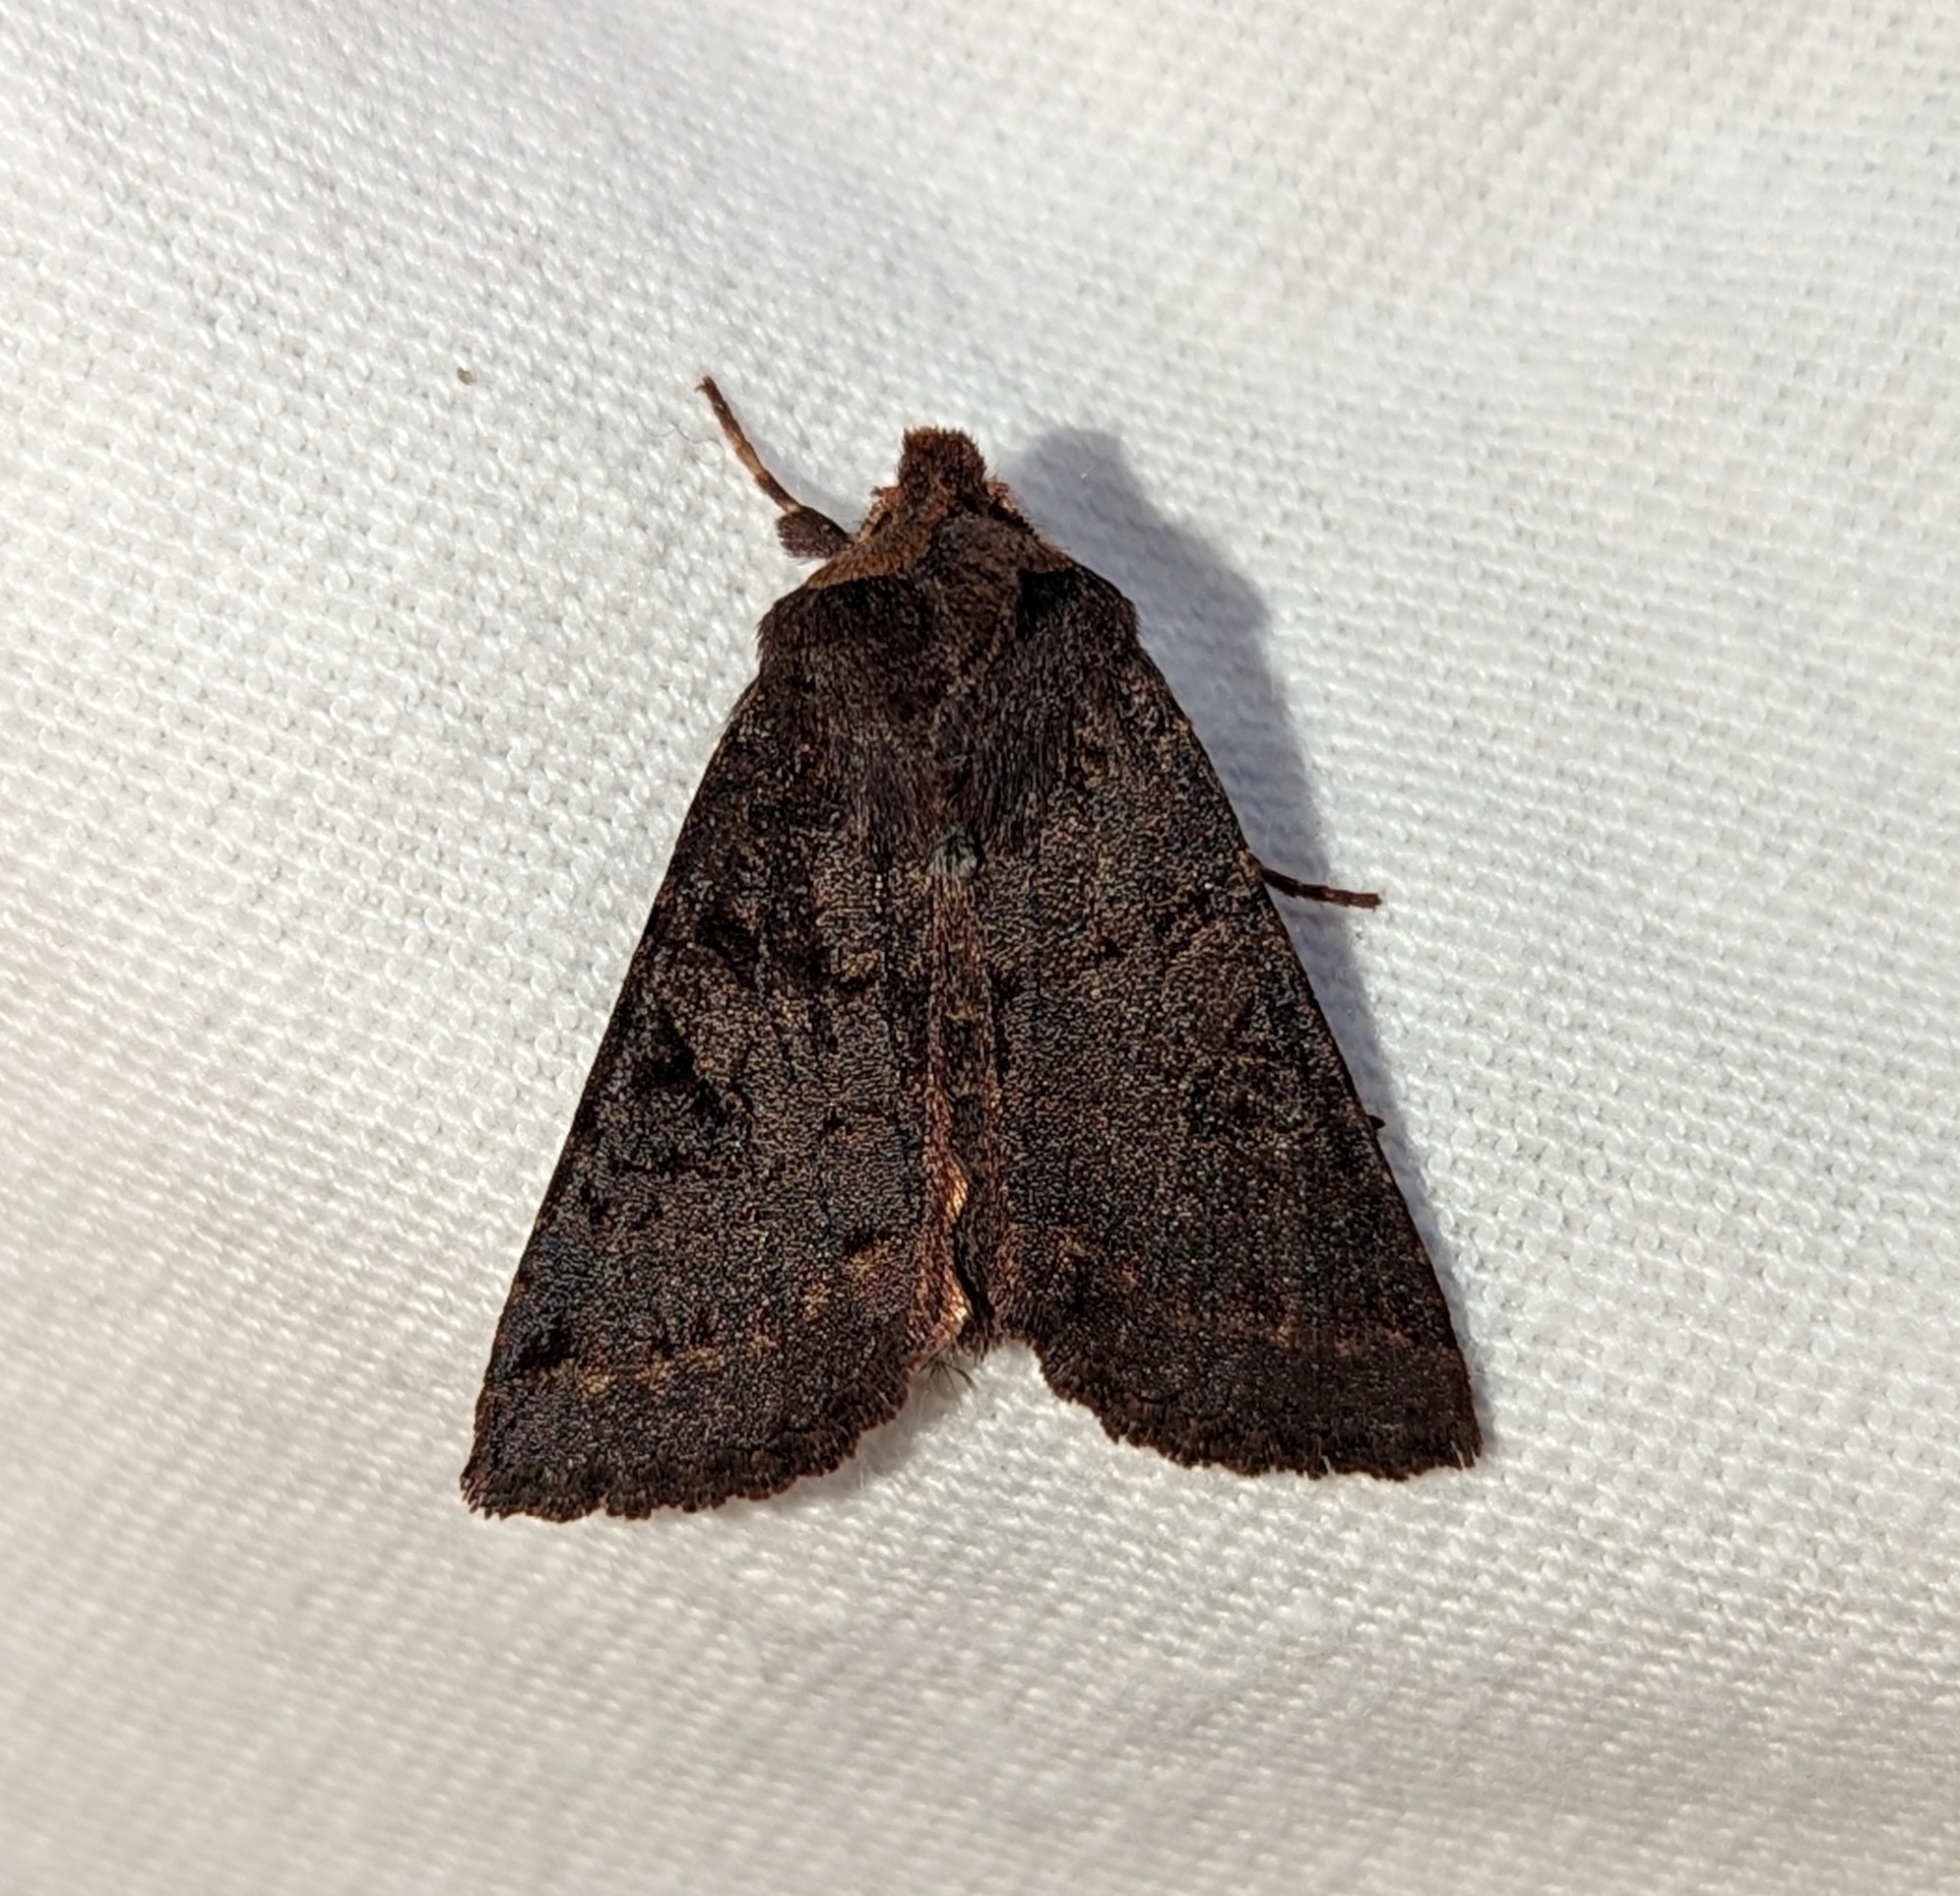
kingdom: Animalia
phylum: Arthropoda
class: Insecta
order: Lepidoptera
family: Noctuidae
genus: Orthosia
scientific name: Orthosia praeses
